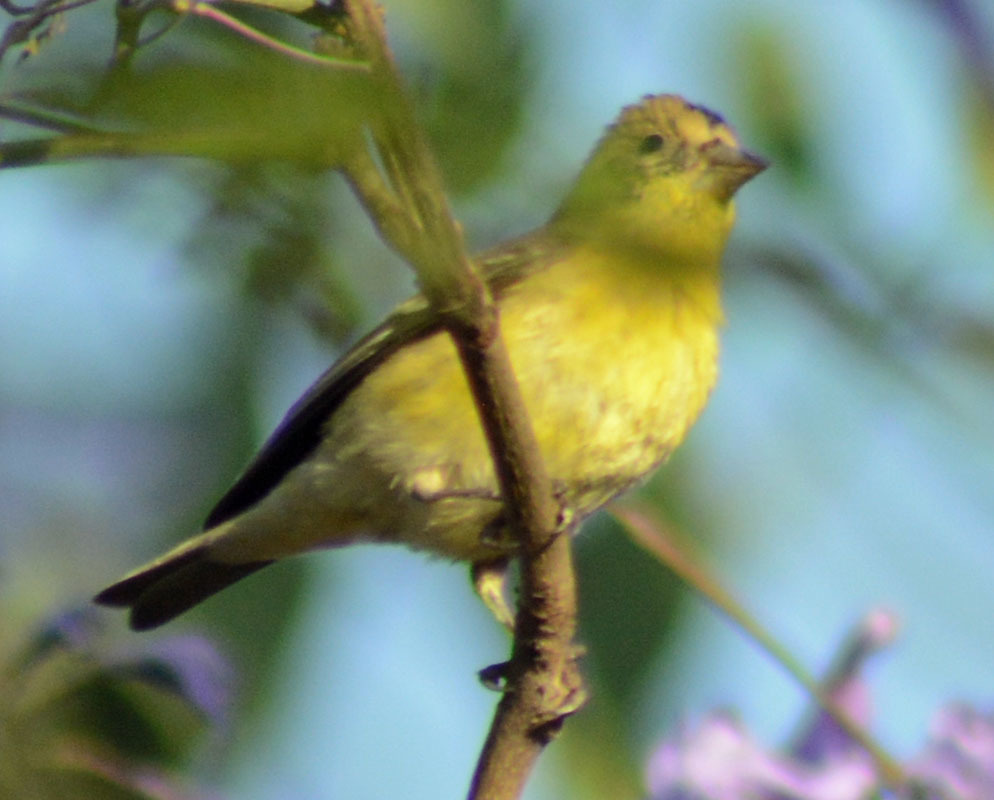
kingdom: Animalia
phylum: Chordata
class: Aves
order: Passeriformes
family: Fringillidae
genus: Spinus
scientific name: Spinus psaltria
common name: Lesser goldfinch
